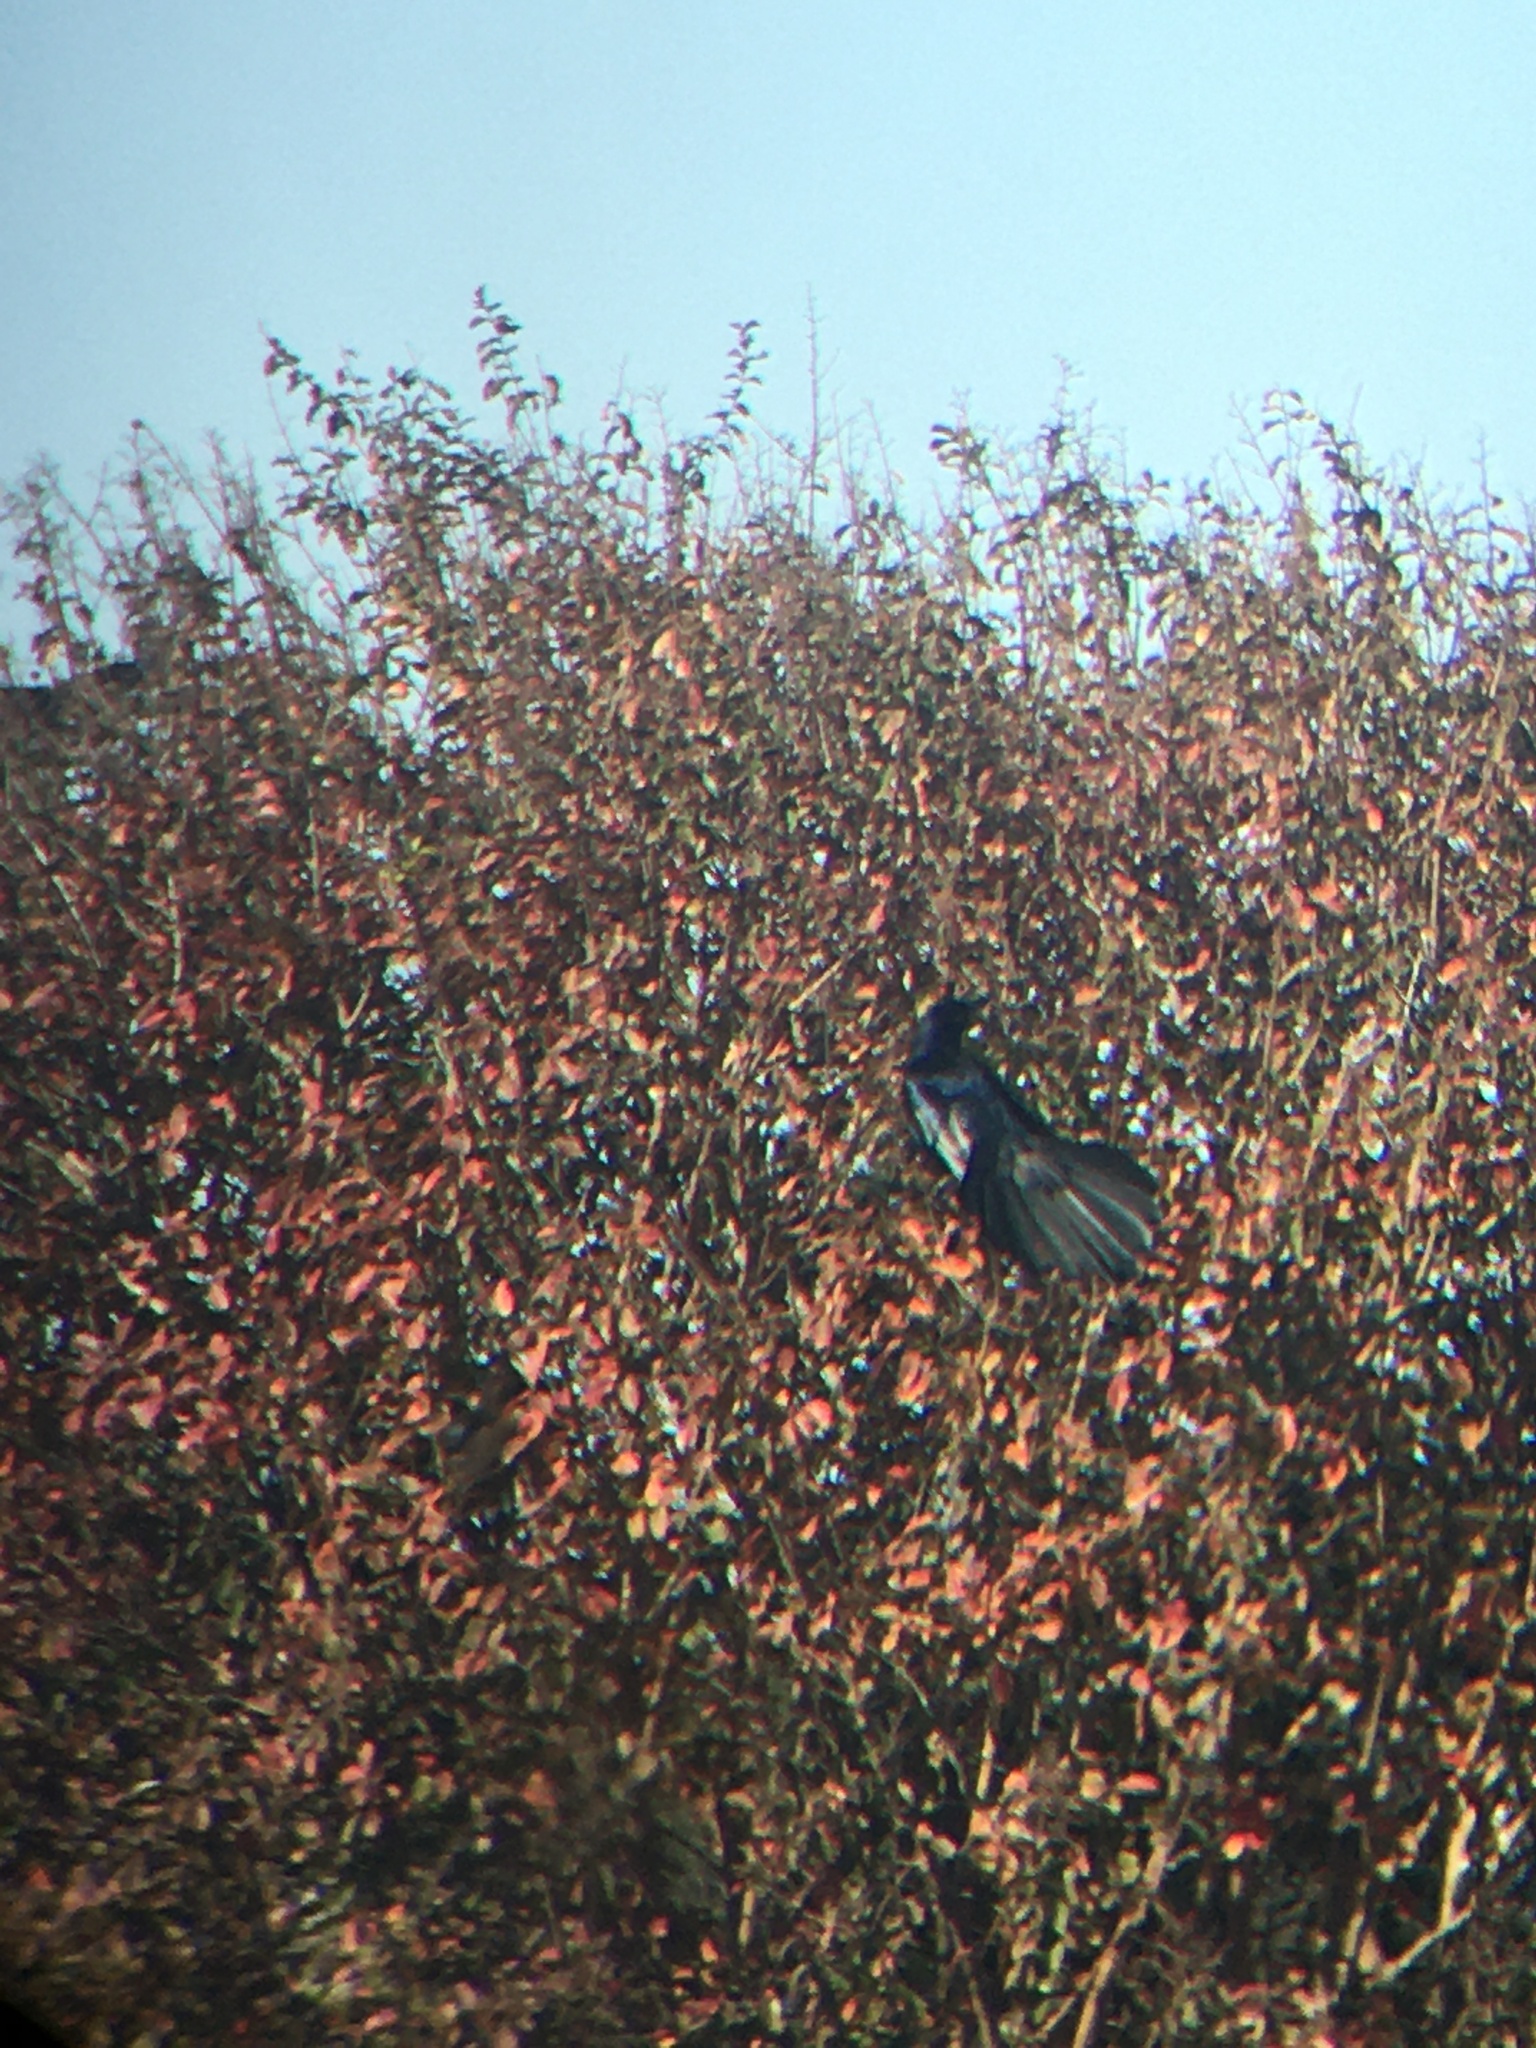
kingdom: Animalia
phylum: Chordata
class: Aves
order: Passeriformes
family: Icteridae
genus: Quiscalus
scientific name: Quiscalus mexicanus
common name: Great-tailed grackle
